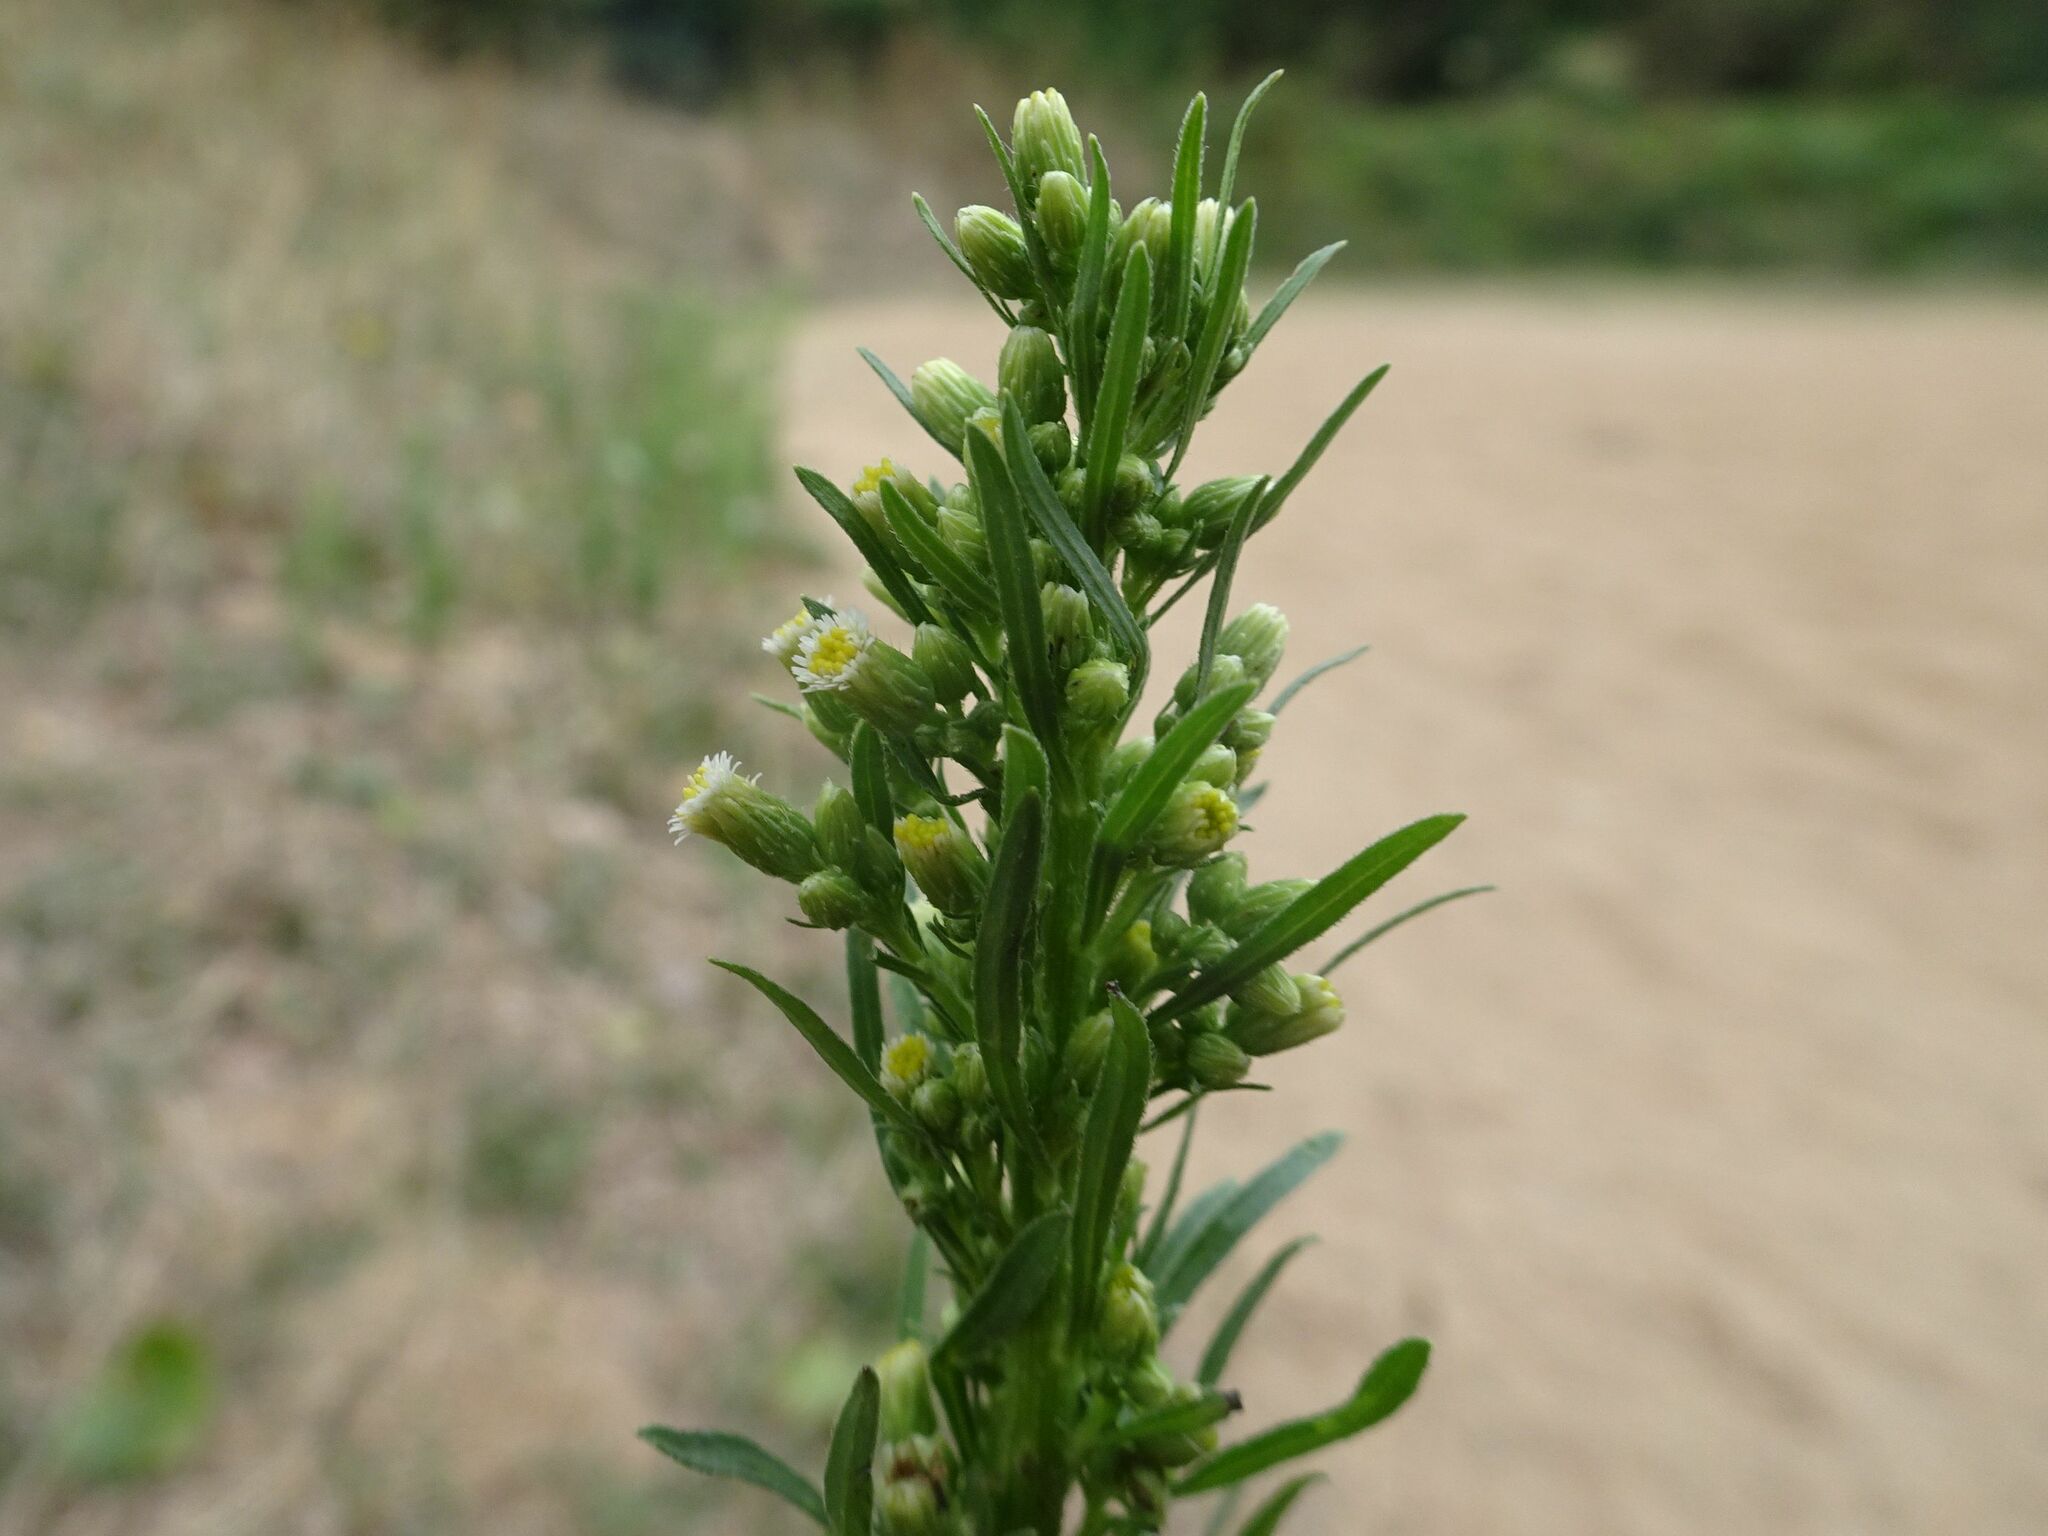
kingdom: Plantae
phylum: Tracheophyta
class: Magnoliopsida
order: Asterales
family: Asteraceae
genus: Erigeron
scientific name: Erigeron canadensis
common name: Canadian fleabane
